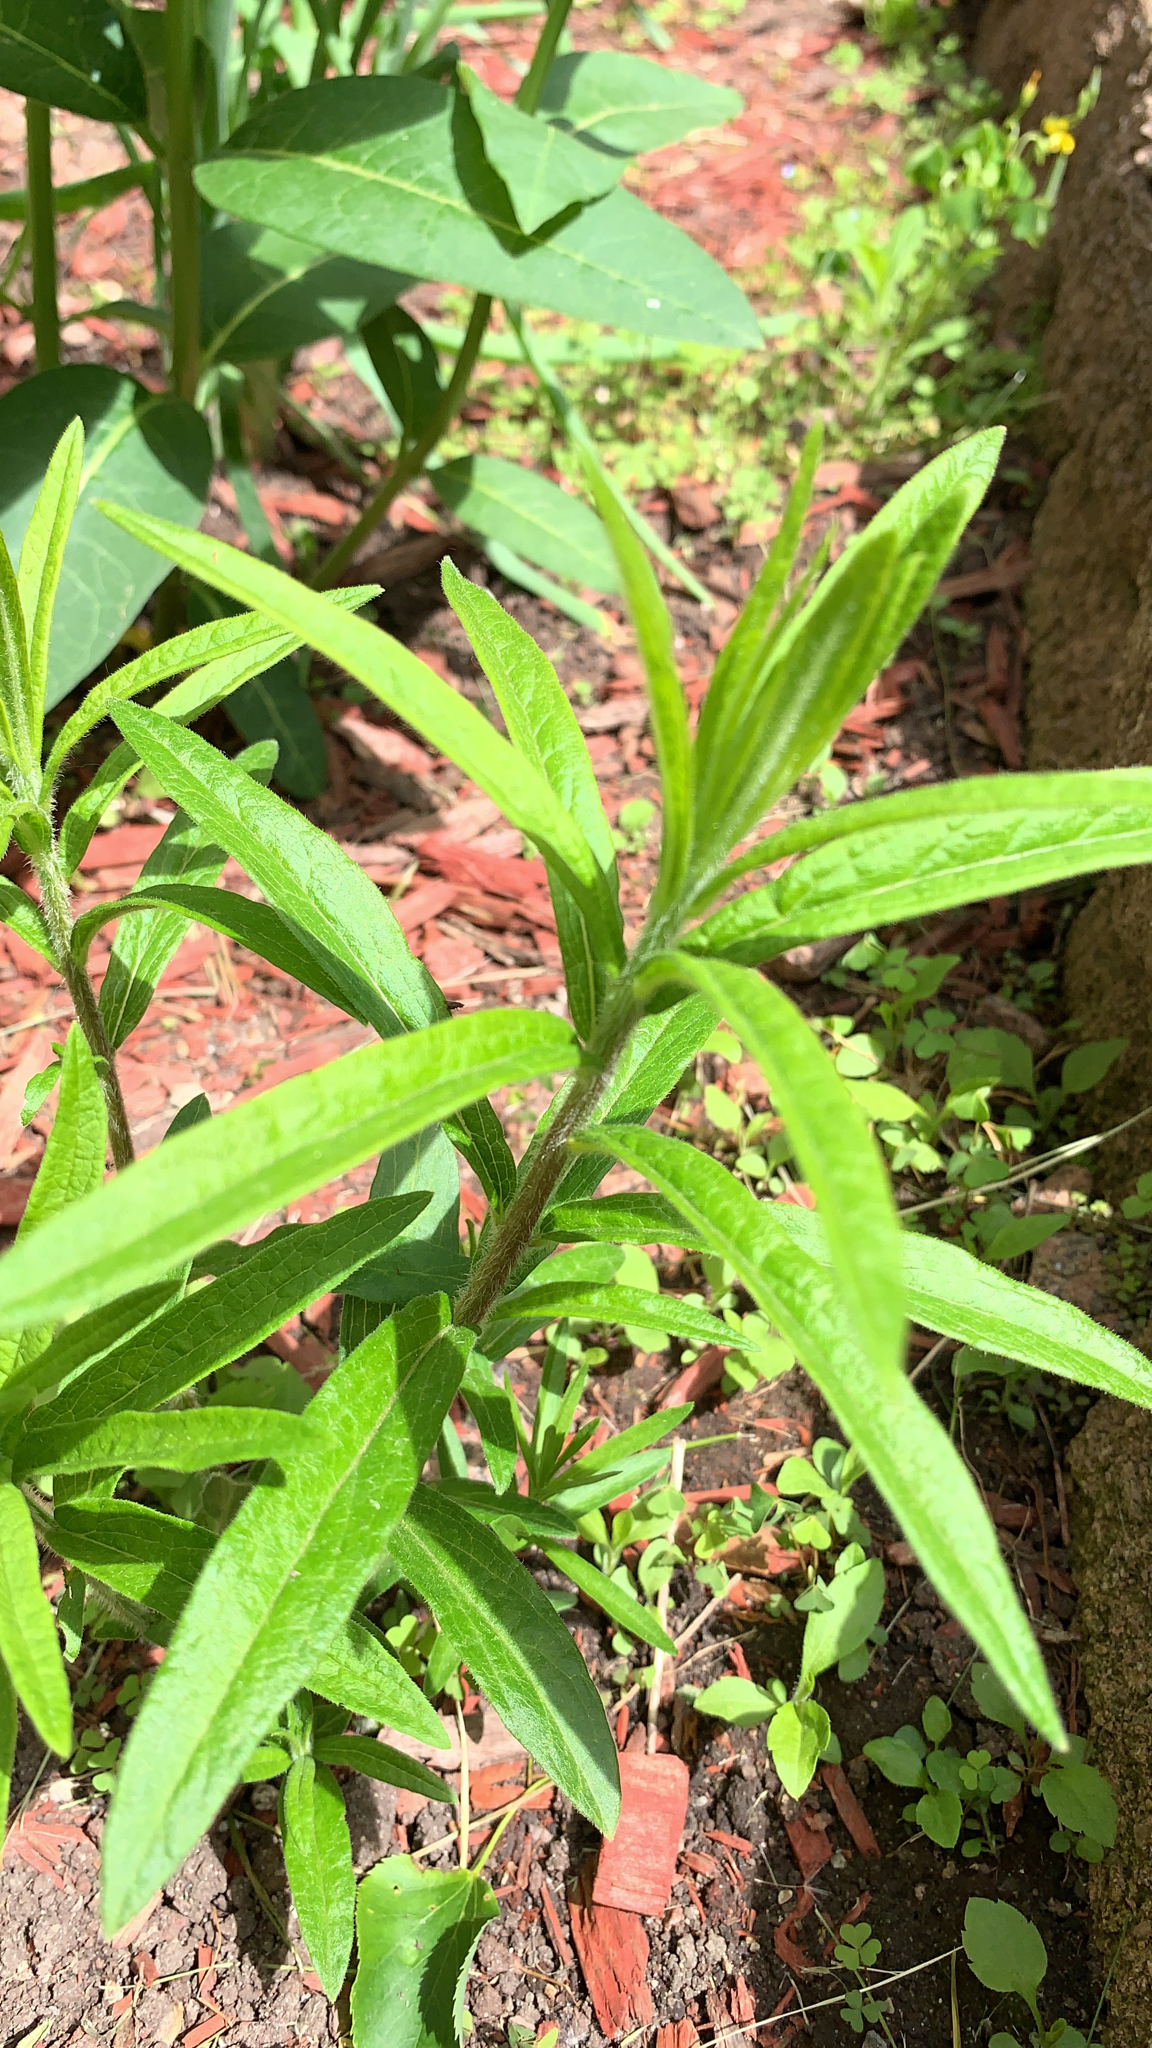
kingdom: Plantae
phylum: Tracheophyta
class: Magnoliopsida
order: Gentianales
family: Apocynaceae
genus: Asclepias
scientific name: Asclepias tuberosa
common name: Butterfly milkweed
